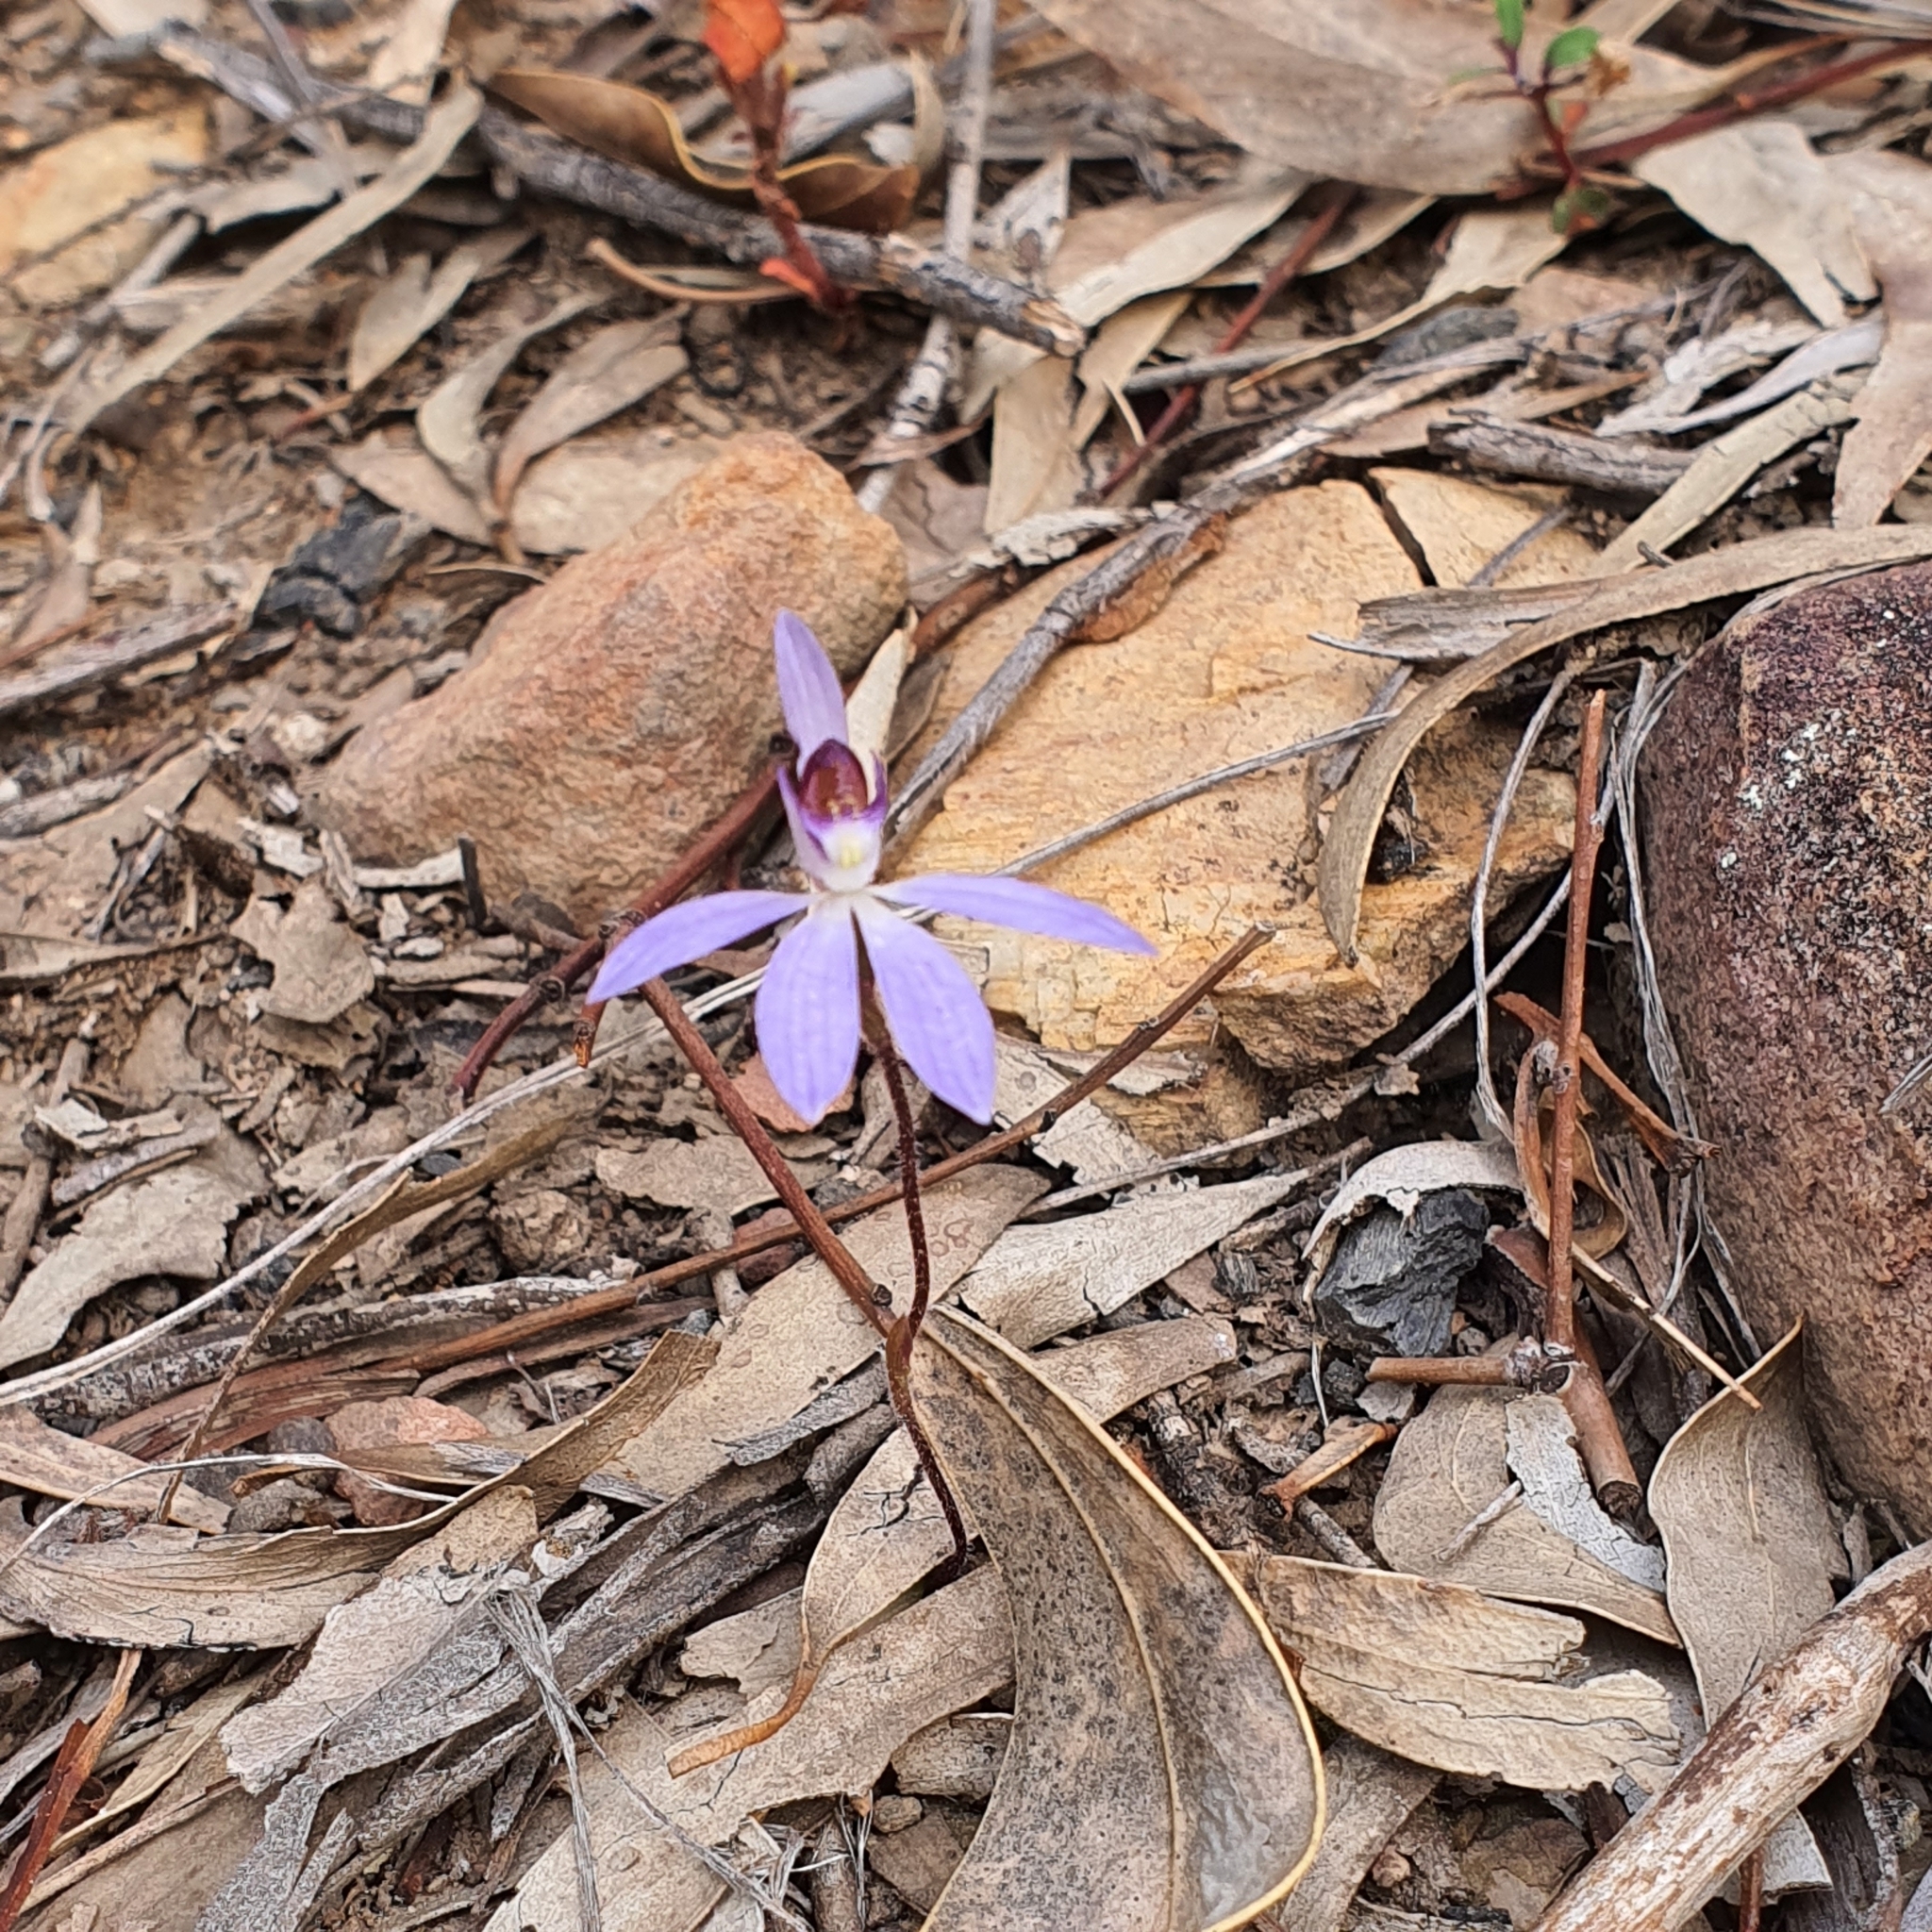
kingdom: Plantae
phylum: Tracheophyta
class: Liliopsida
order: Asparagales
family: Orchidaceae
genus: Caladenia
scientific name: Caladenia caerulea
